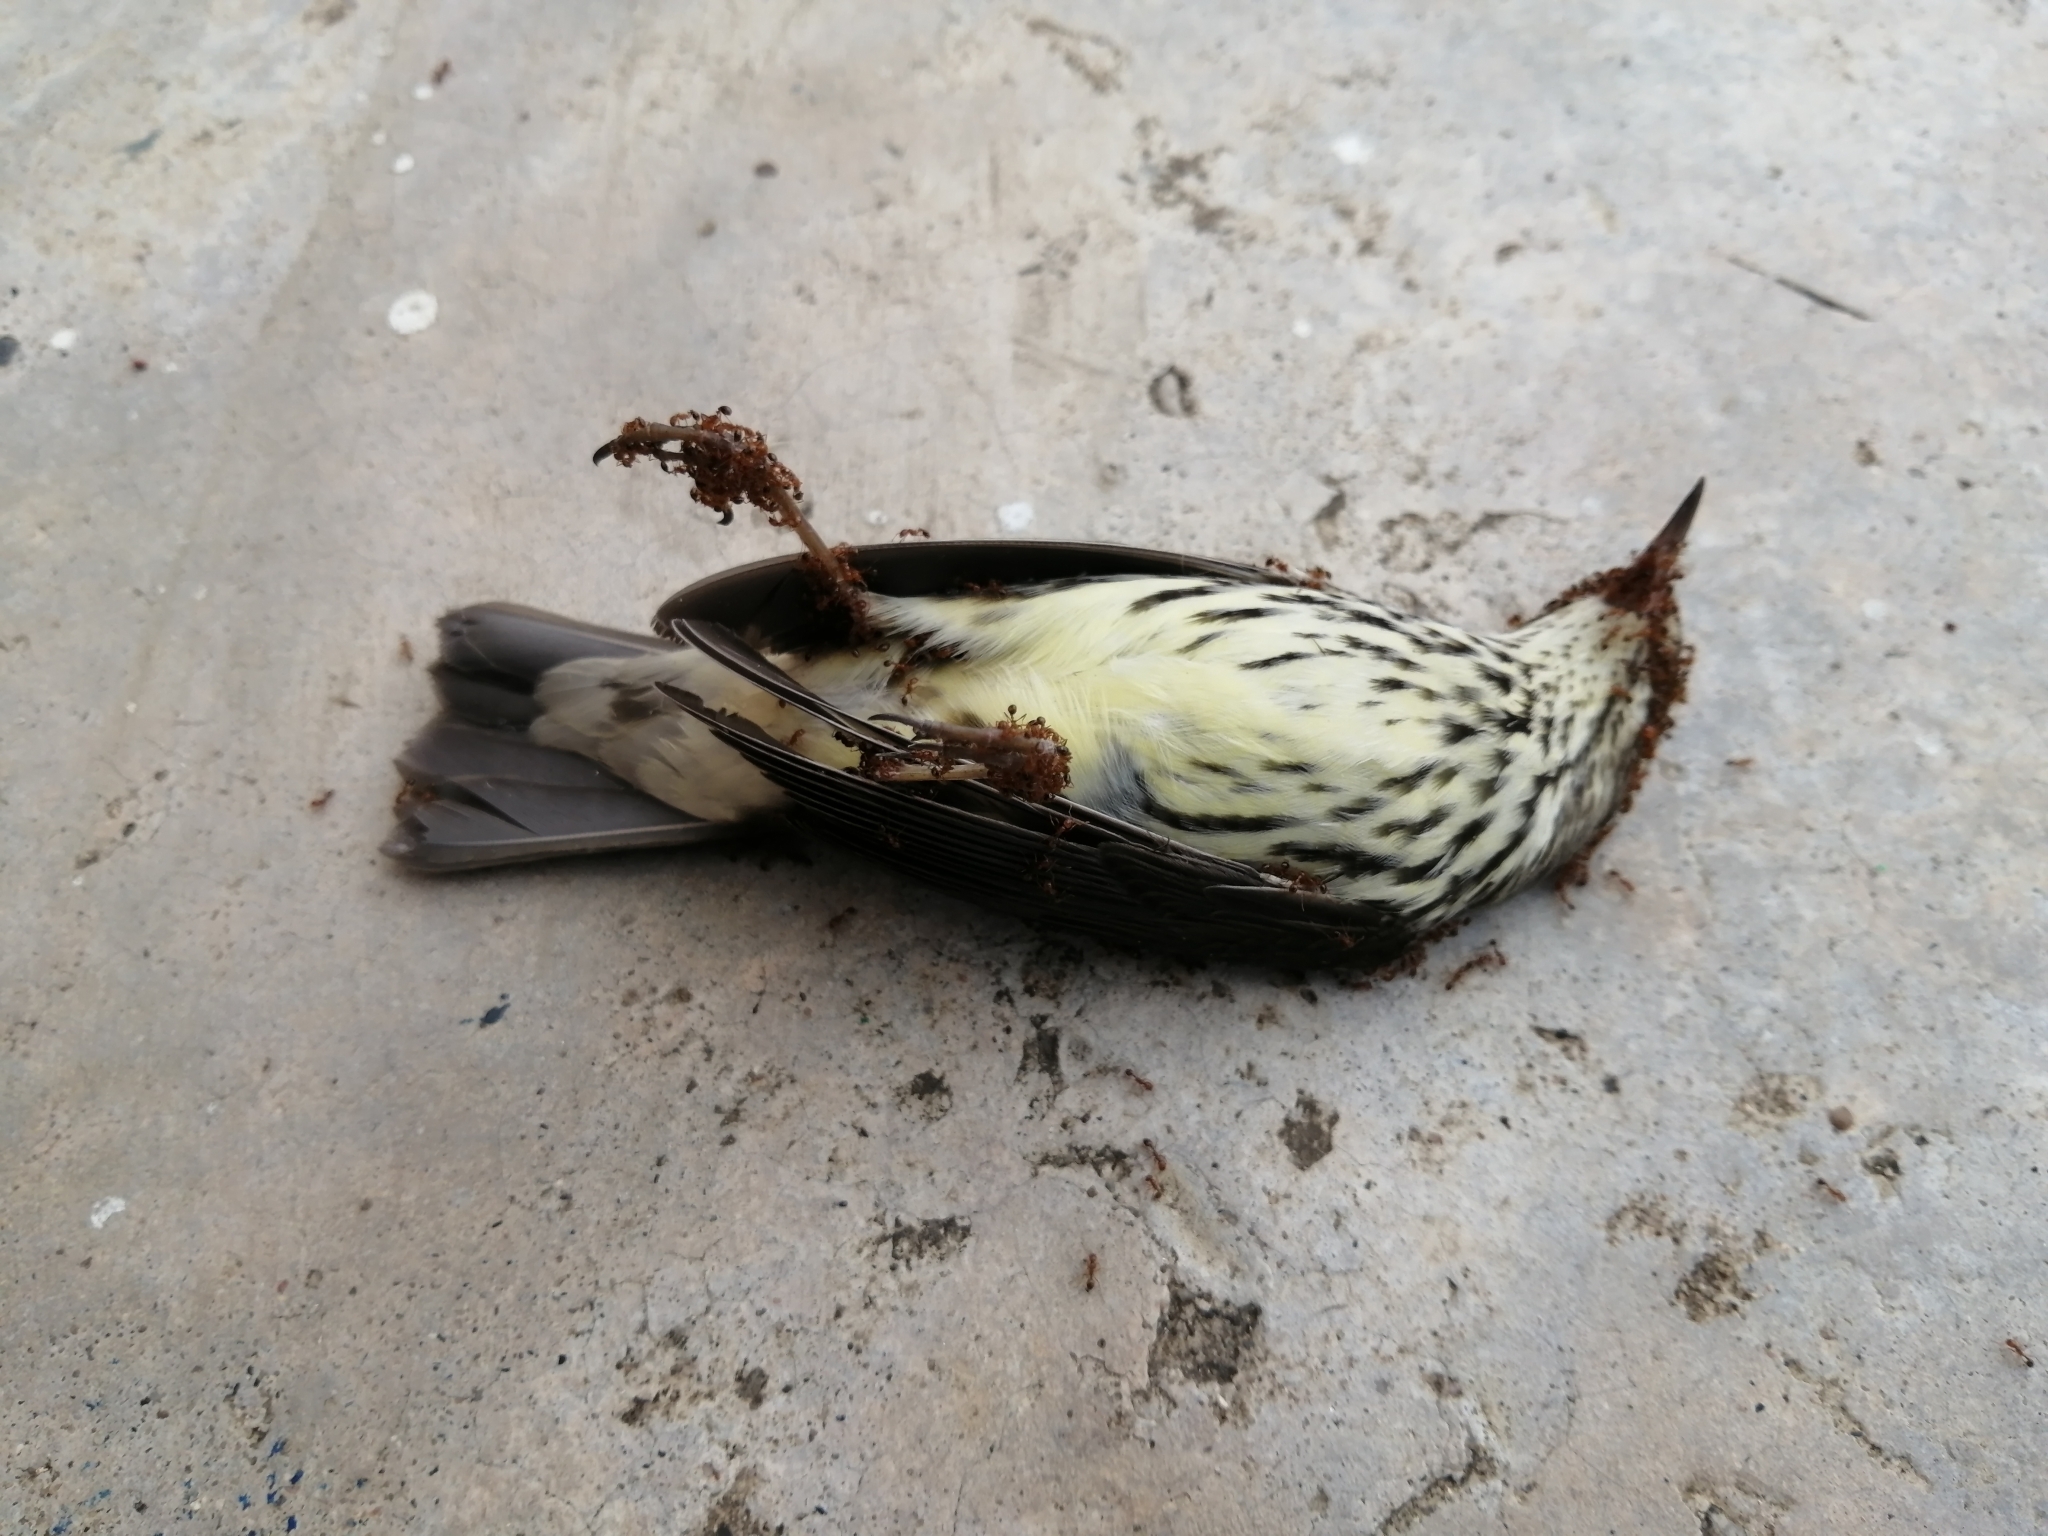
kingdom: Animalia
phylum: Chordata
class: Aves
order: Passeriformes
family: Parulidae
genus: Parkesia
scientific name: Parkesia noveboracensis
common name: Northern waterthrush
